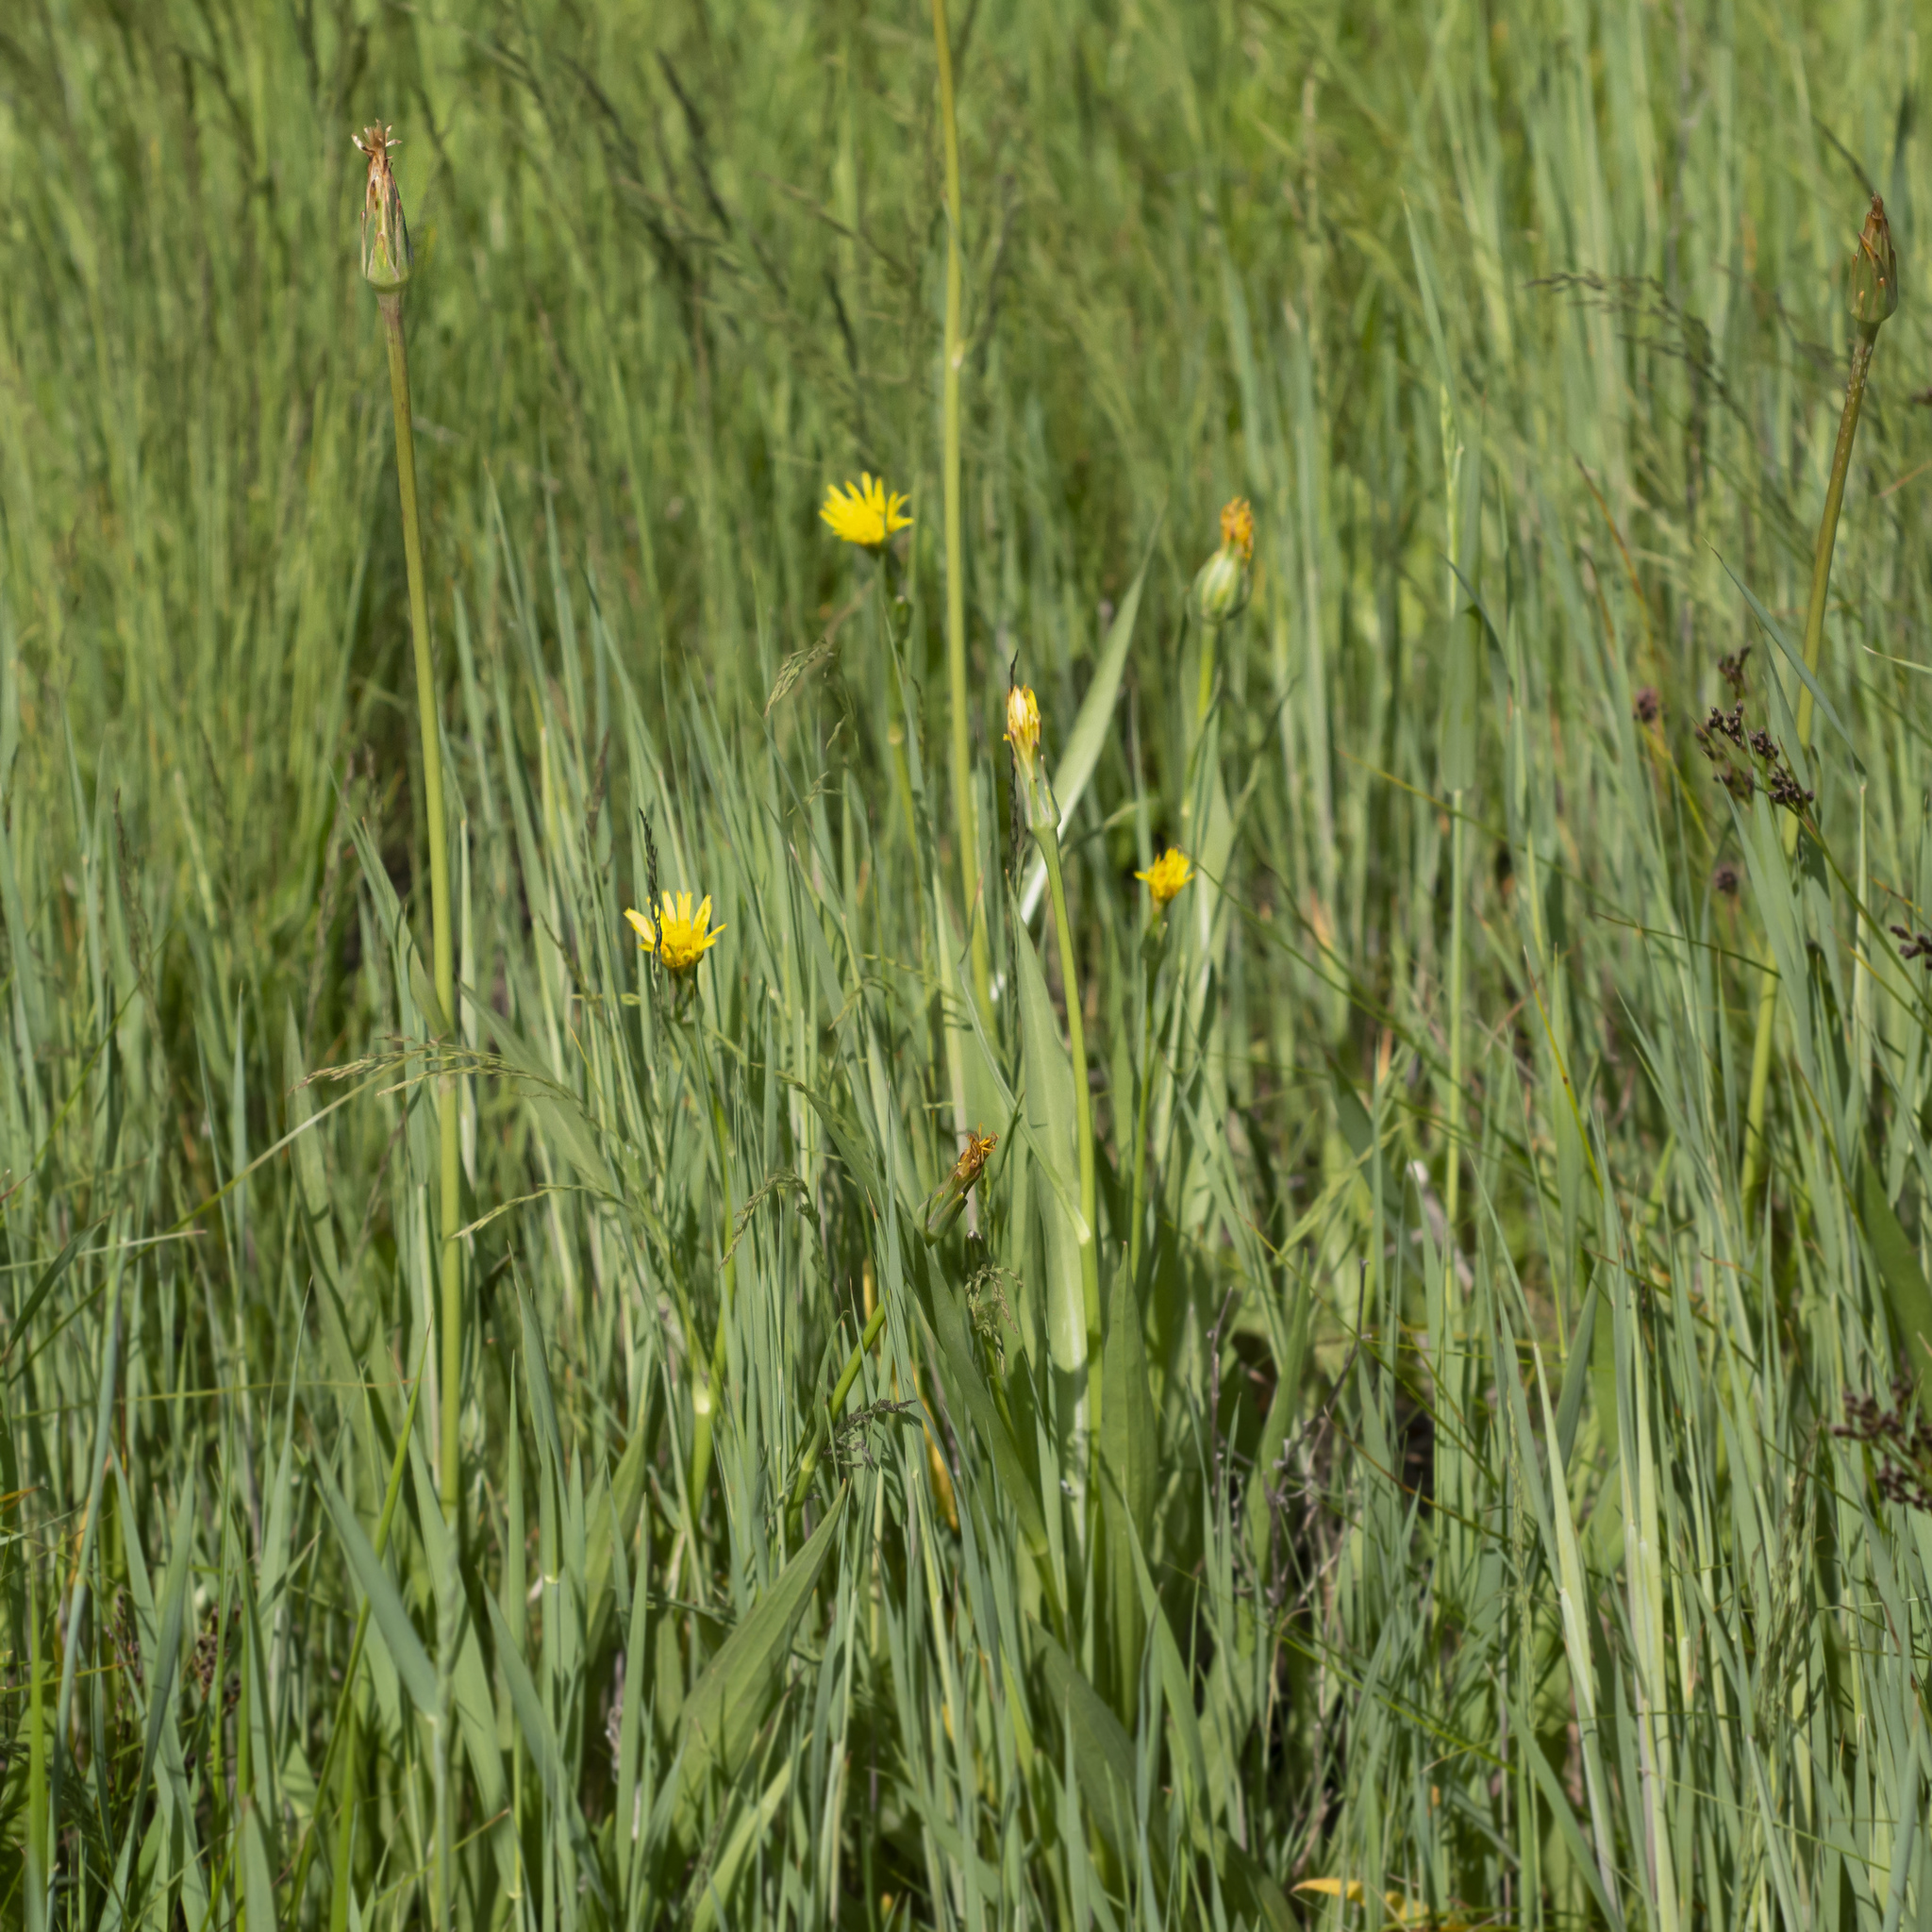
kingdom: Plantae
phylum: Tracheophyta
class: Magnoliopsida
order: Asterales
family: Asteraceae
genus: Scorzonera
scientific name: Scorzonera parviflora
